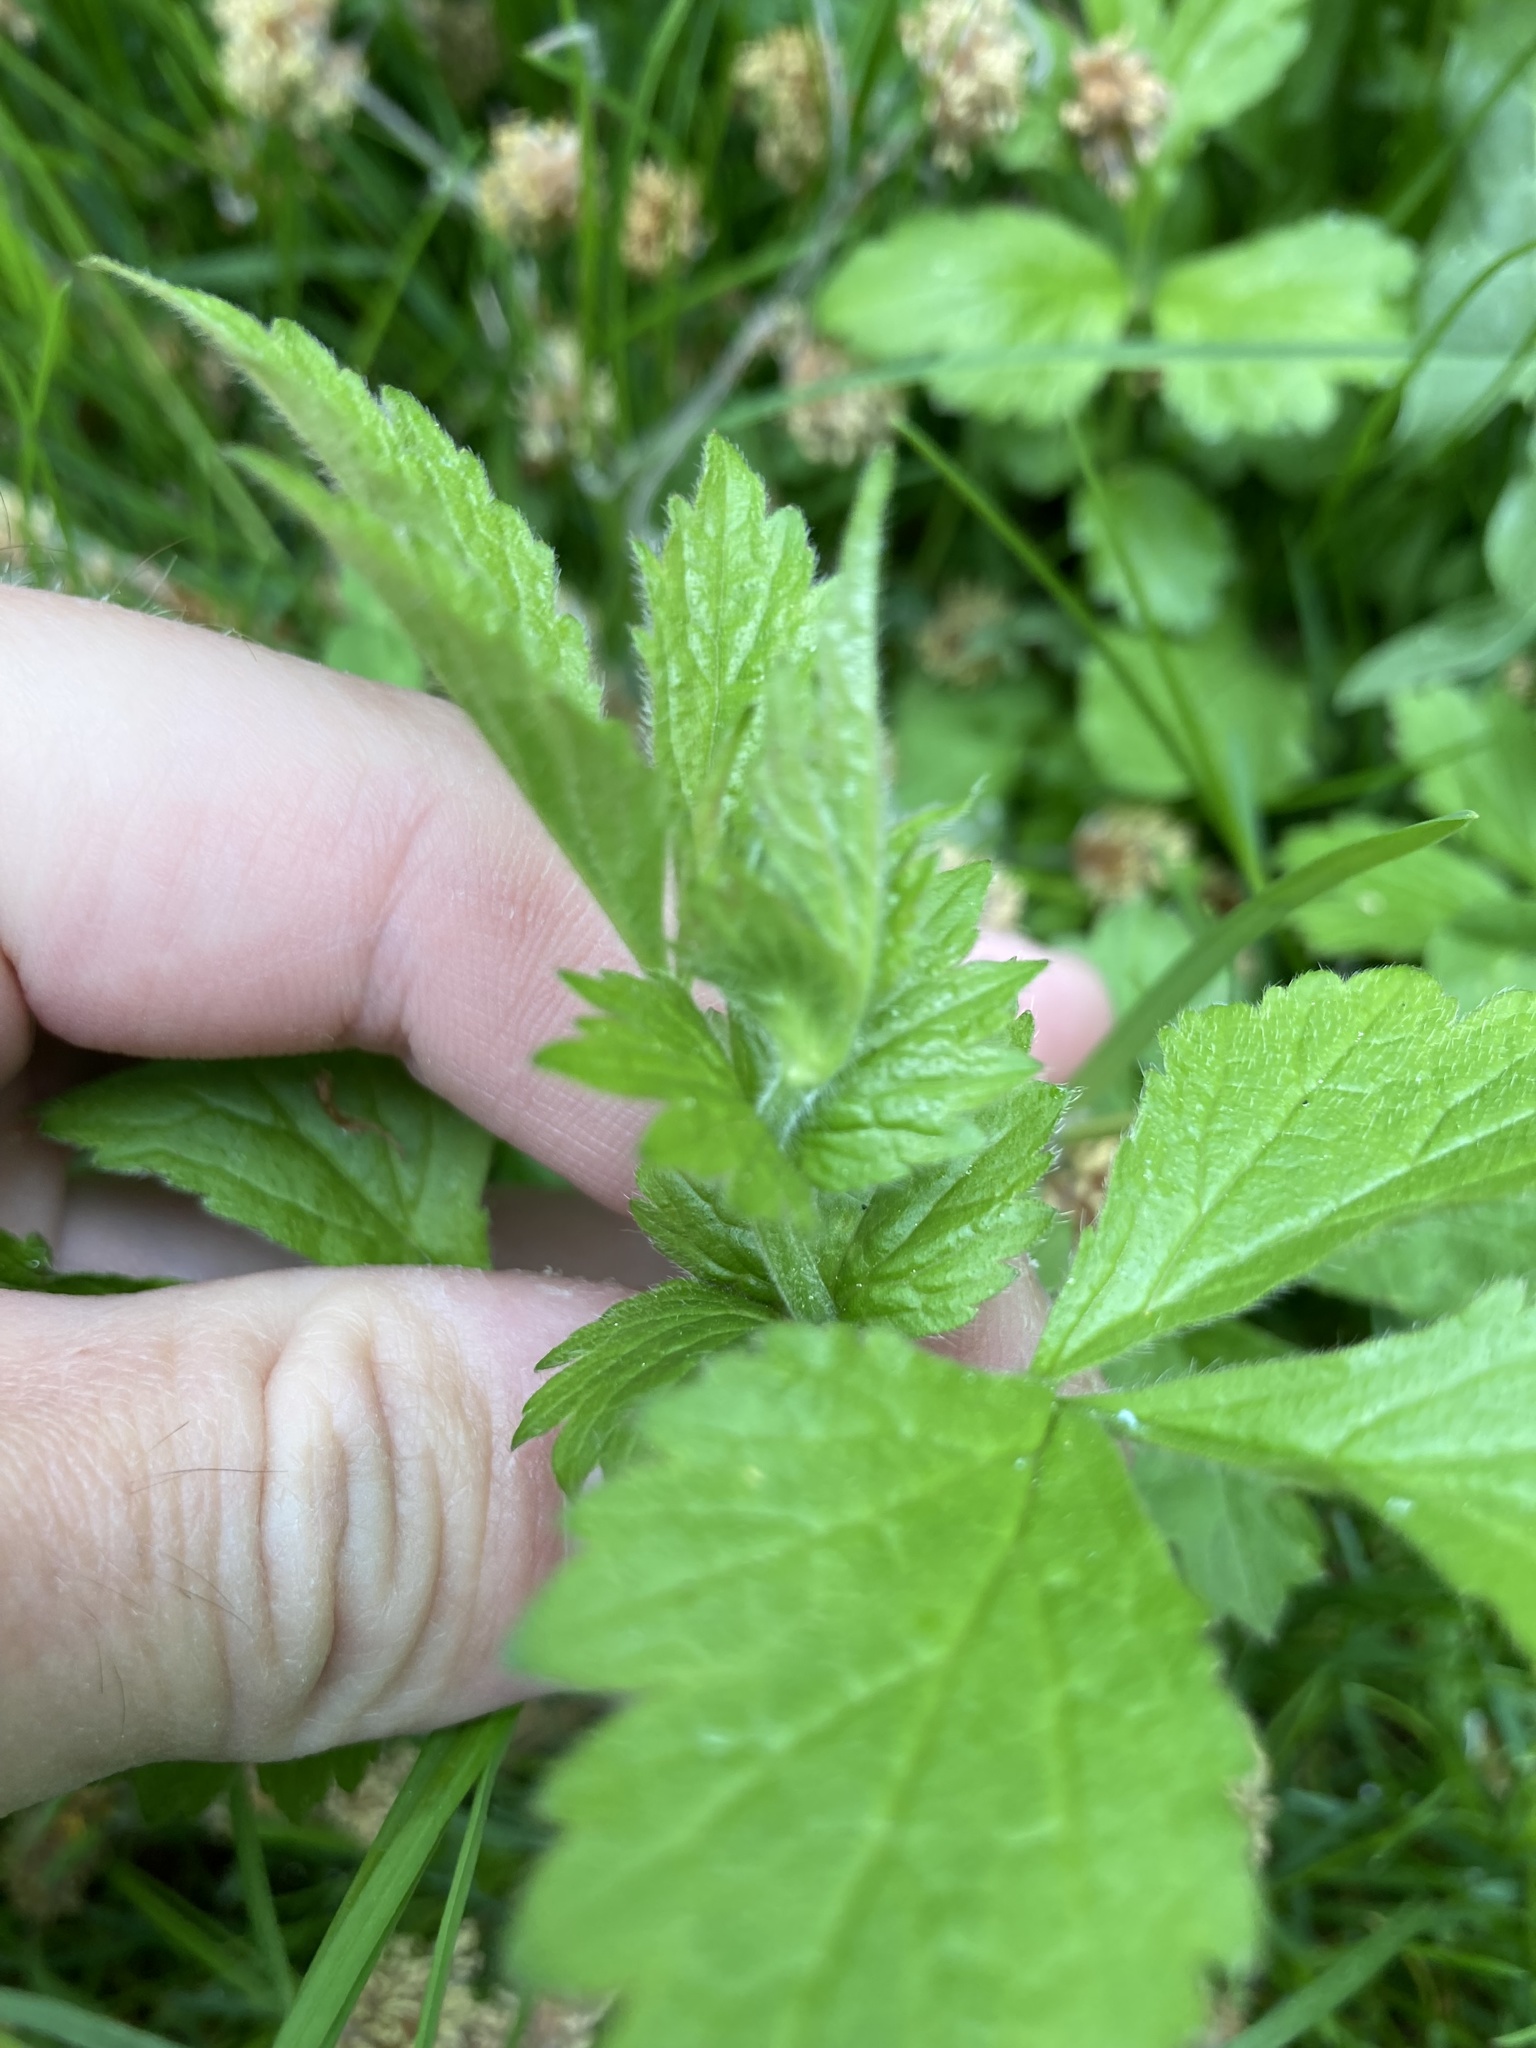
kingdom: Plantae
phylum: Tracheophyta
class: Magnoliopsida
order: Rosales
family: Rosaceae
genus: Geum
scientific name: Geum urbanum
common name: Wood avens
